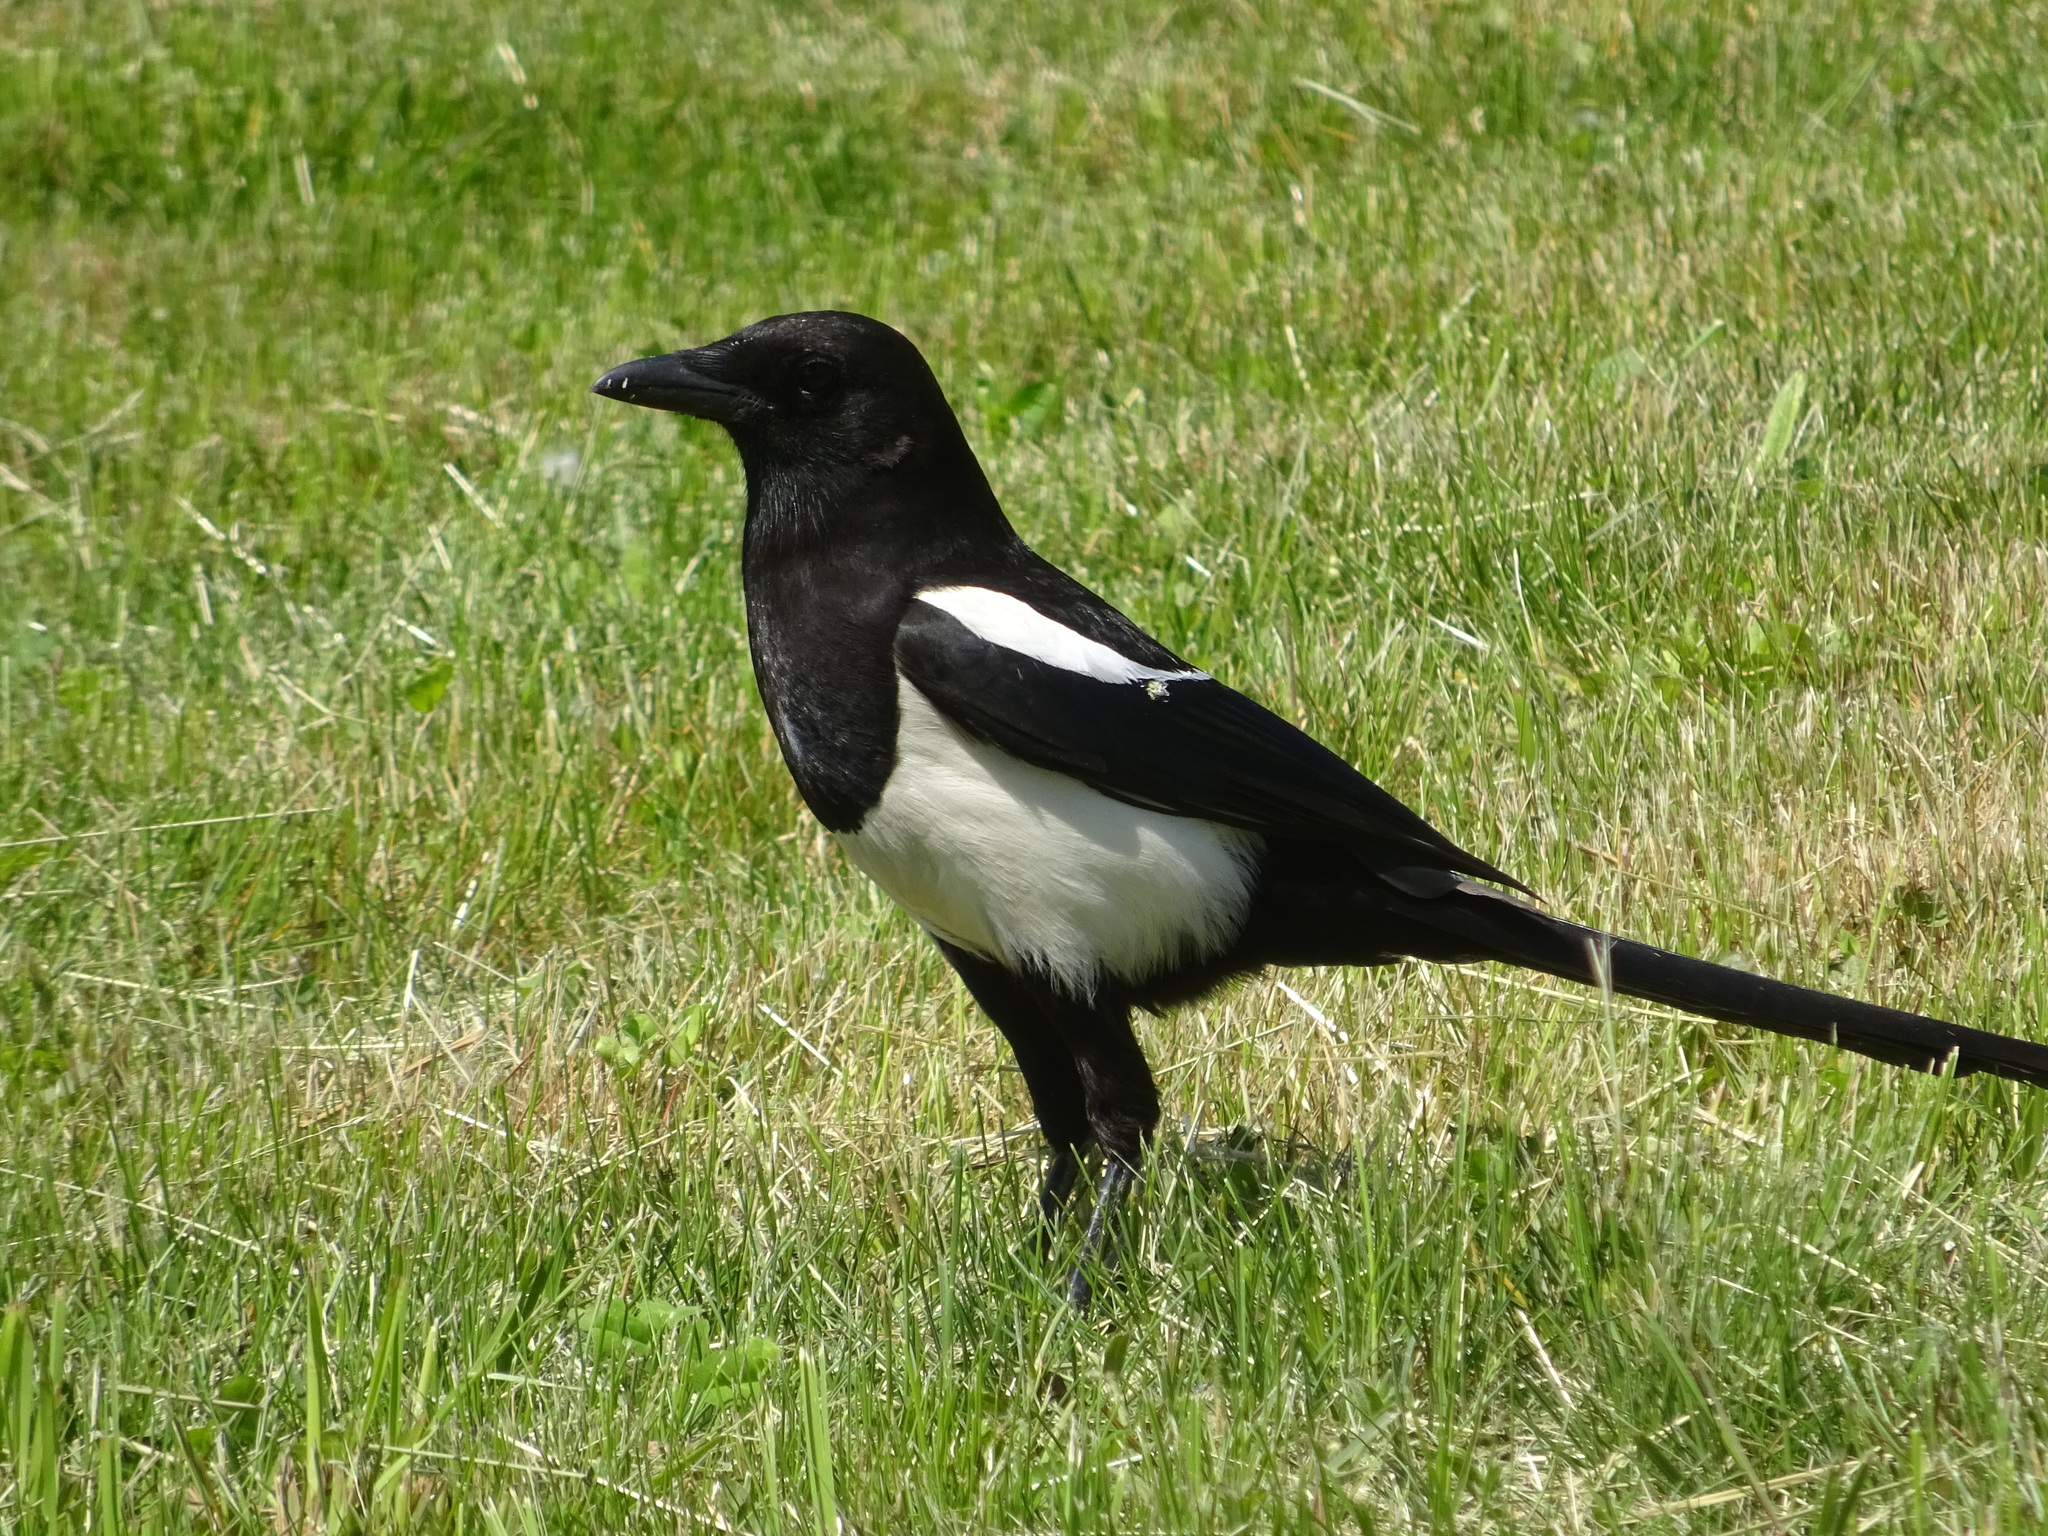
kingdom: Animalia
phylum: Chordata
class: Aves
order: Passeriformes
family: Corvidae
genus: Pica
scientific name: Pica pica
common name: Eurasian magpie
